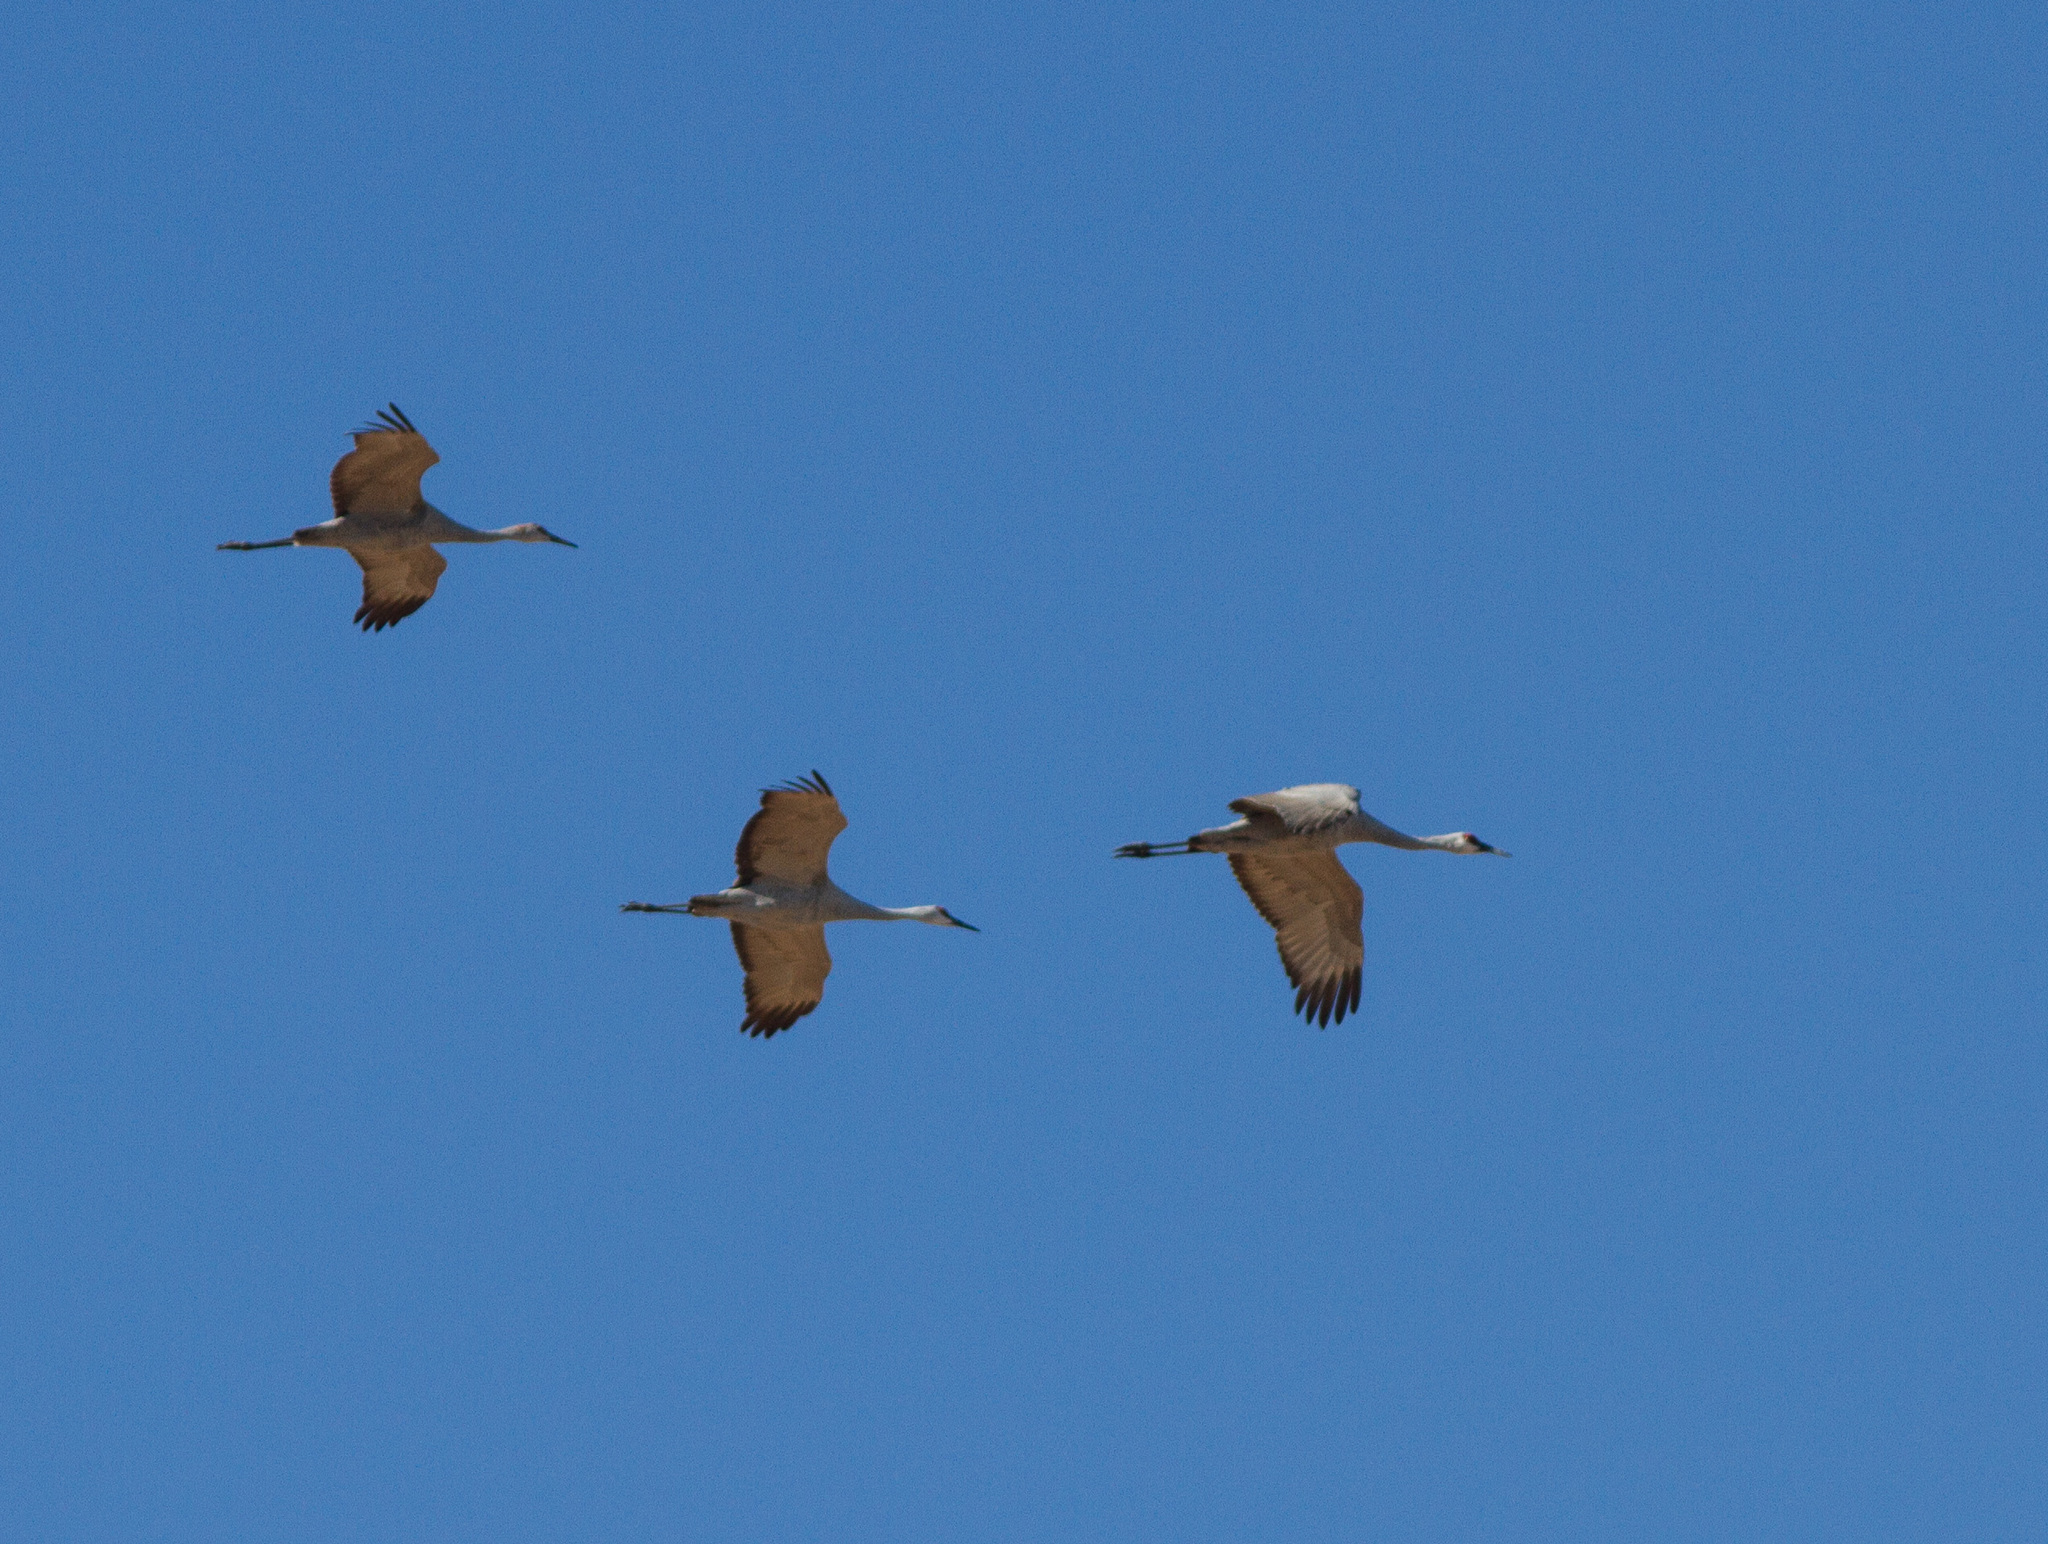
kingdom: Animalia
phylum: Chordata
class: Aves
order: Gruiformes
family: Gruidae
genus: Grus
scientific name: Grus canadensis
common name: Sandhill crane
